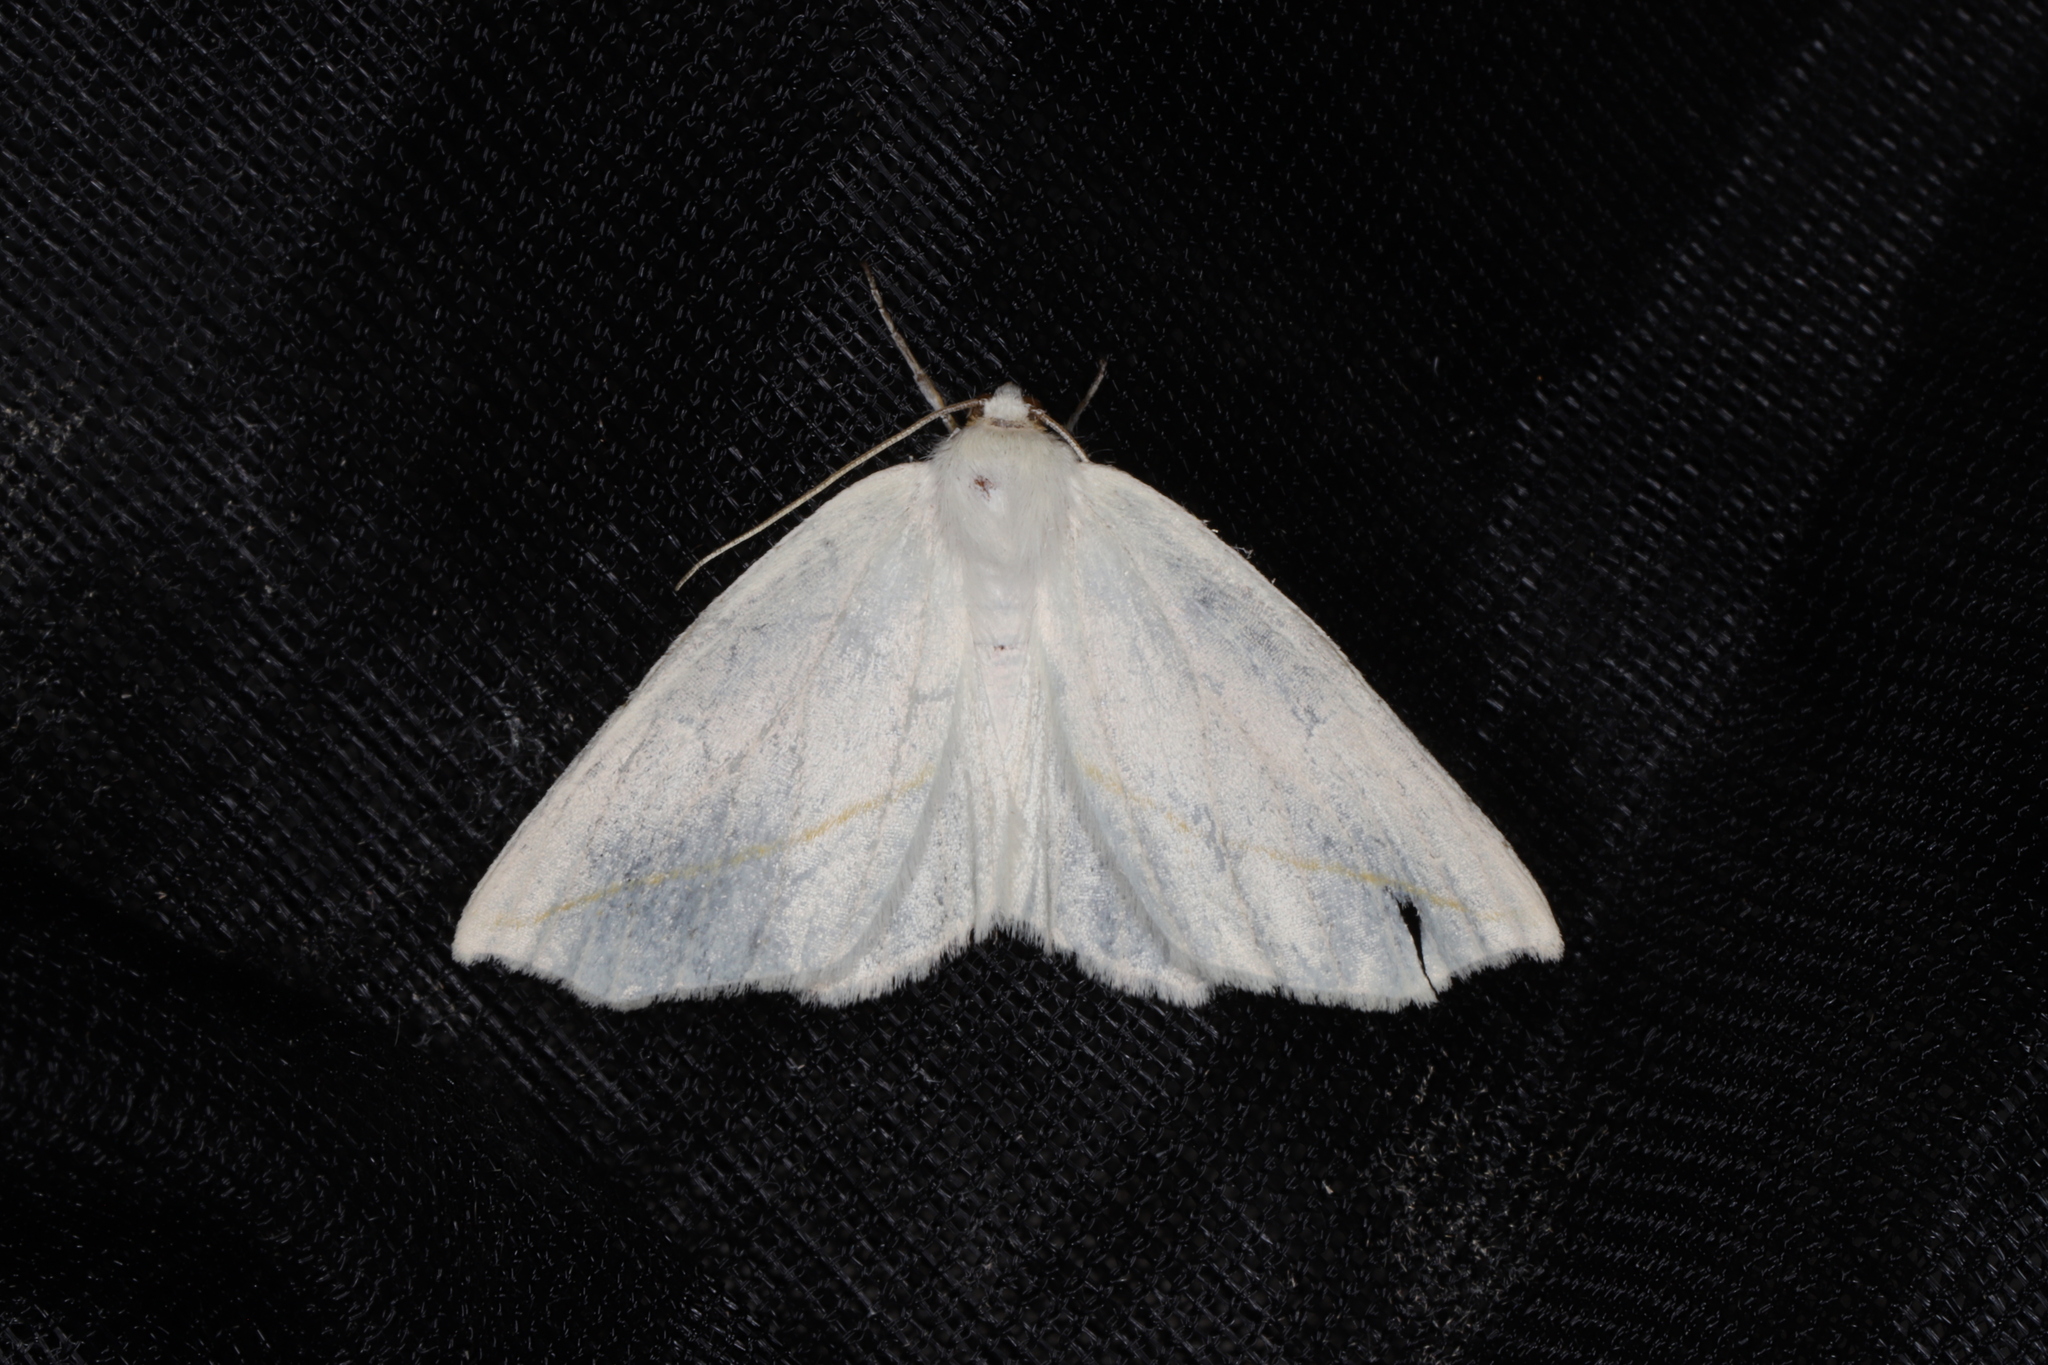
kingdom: Animalia
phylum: Arthropoda
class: Insecta
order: Lepidoptera
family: Geometridae
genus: Tetracis
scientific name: Tetracis cachexiata
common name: White slant-line
